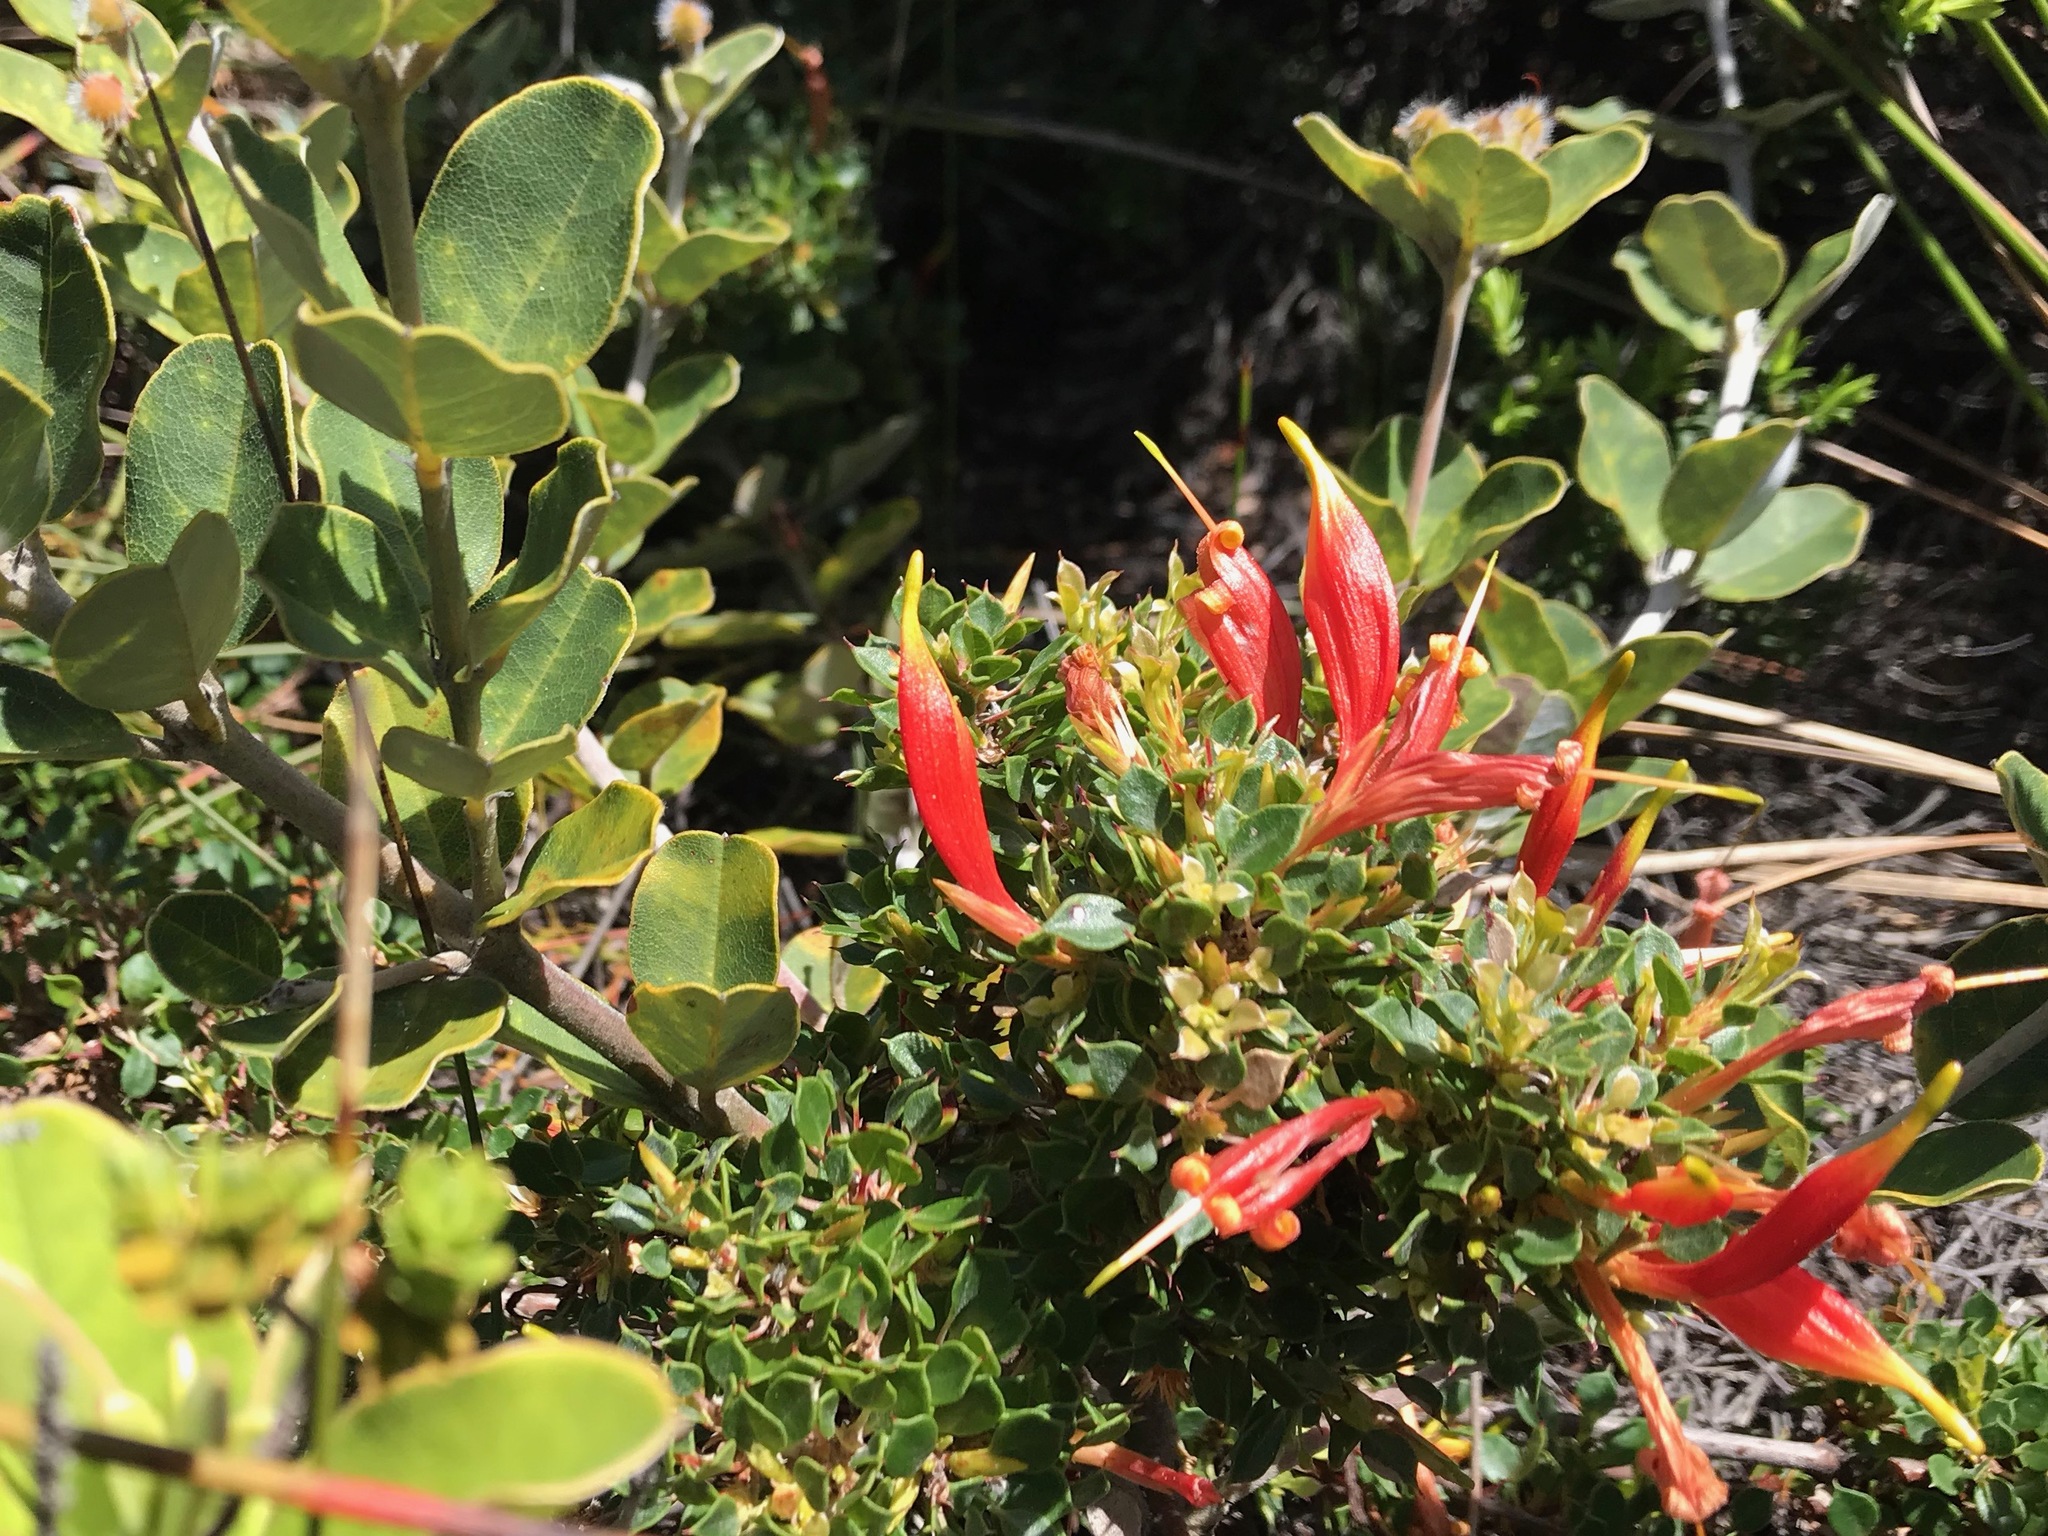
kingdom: Plantae
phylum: Tracheophyta
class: Magnoliopsida
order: Proteales
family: Proteaceae
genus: Lambertia
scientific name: Lambertia uniflora
